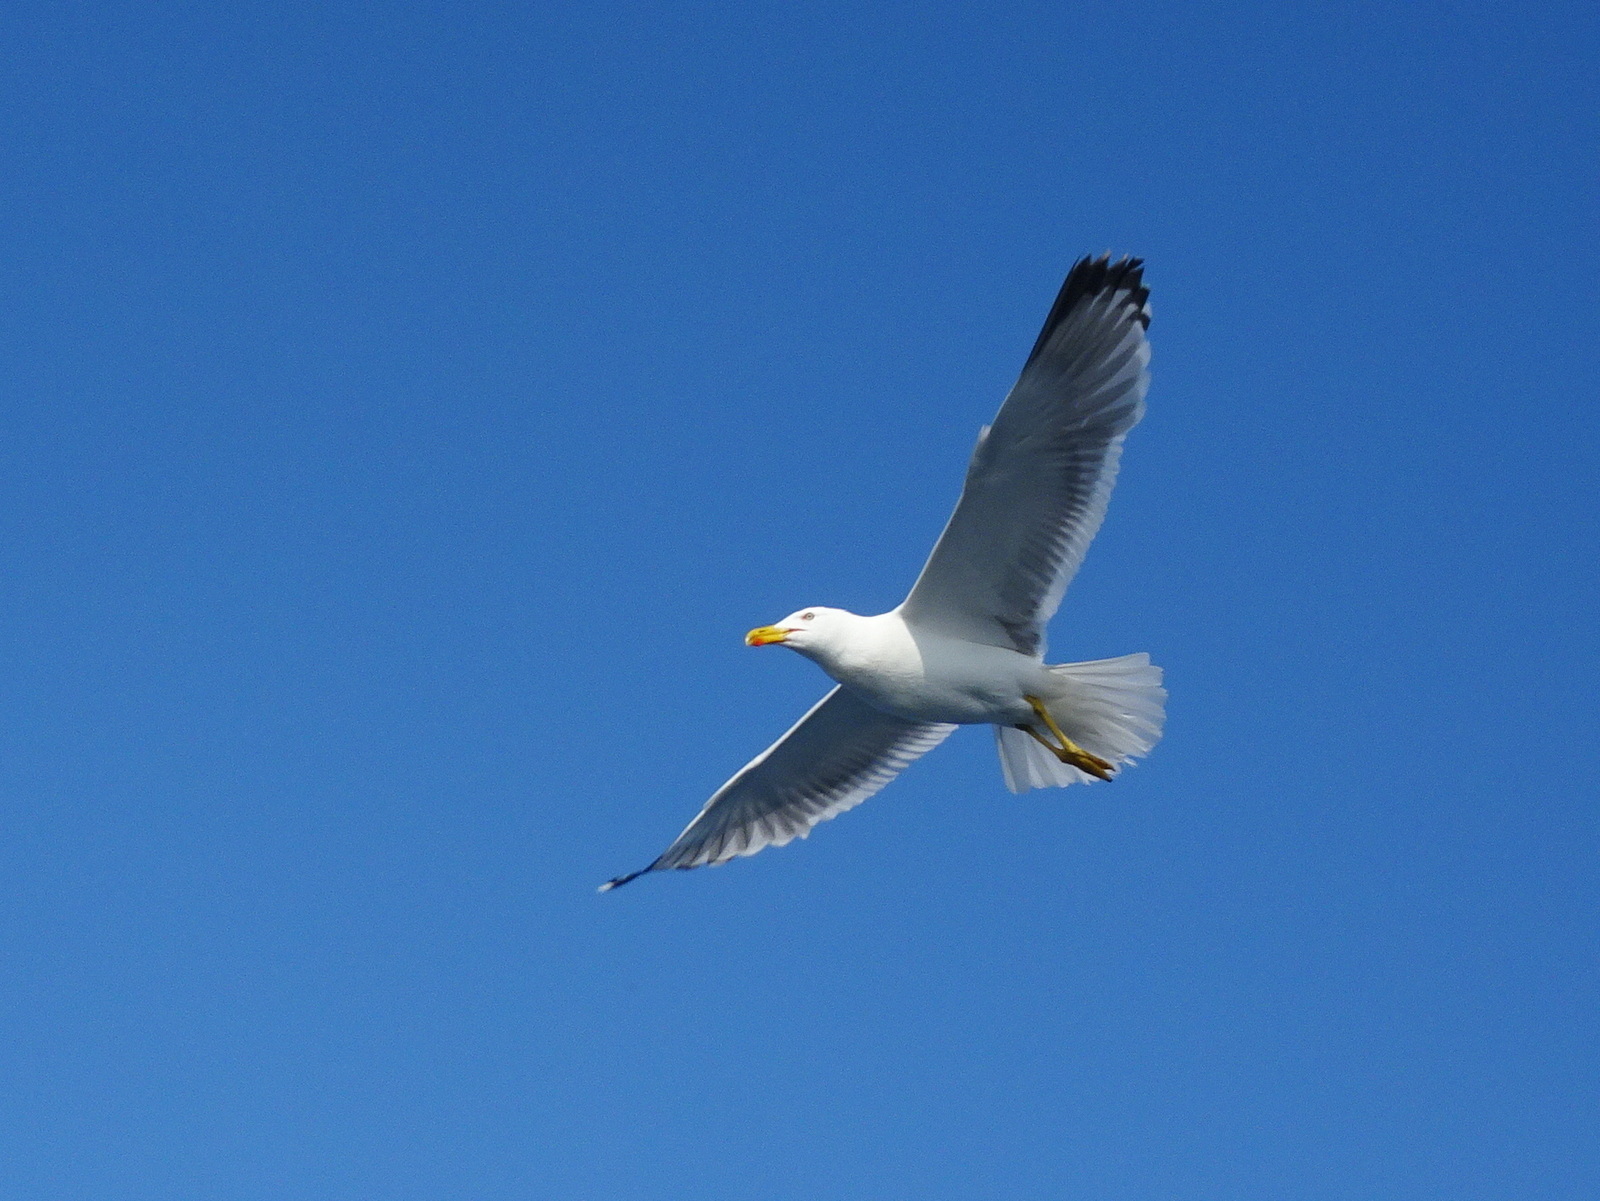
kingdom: Animalia
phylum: Chordata
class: Aves
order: Charadriiformes
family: Laridae
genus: Larus
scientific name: Larus michahellis
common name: Yellow-legged gull
